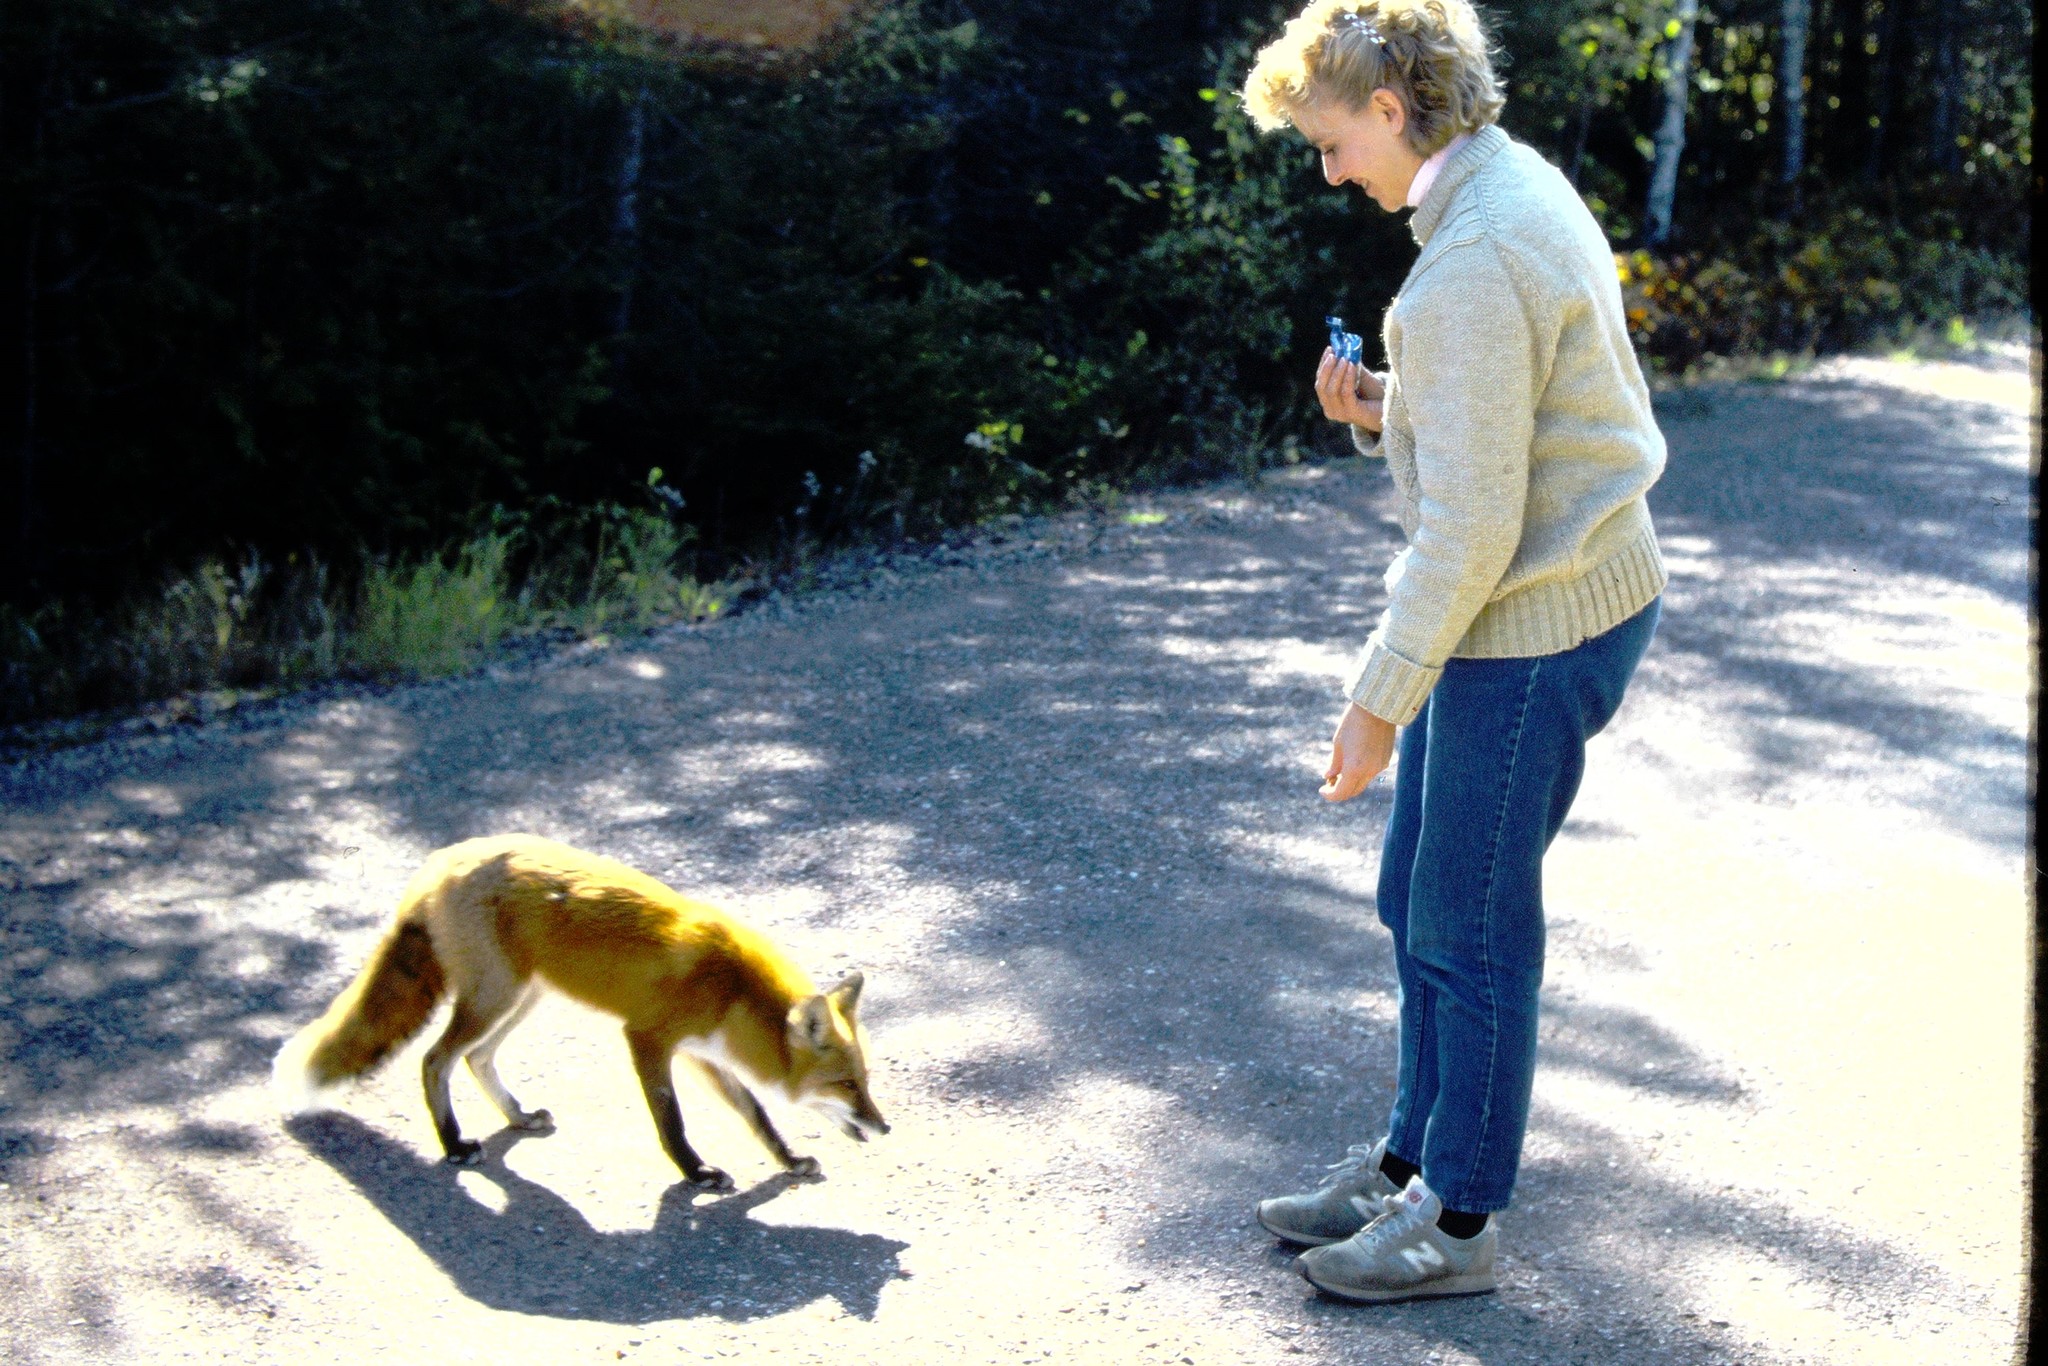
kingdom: Animalia
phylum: Chordata
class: Mammalia
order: Carnivora
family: Canidae
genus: Vulpes
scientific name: Vulpes vulpes
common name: Red fox
